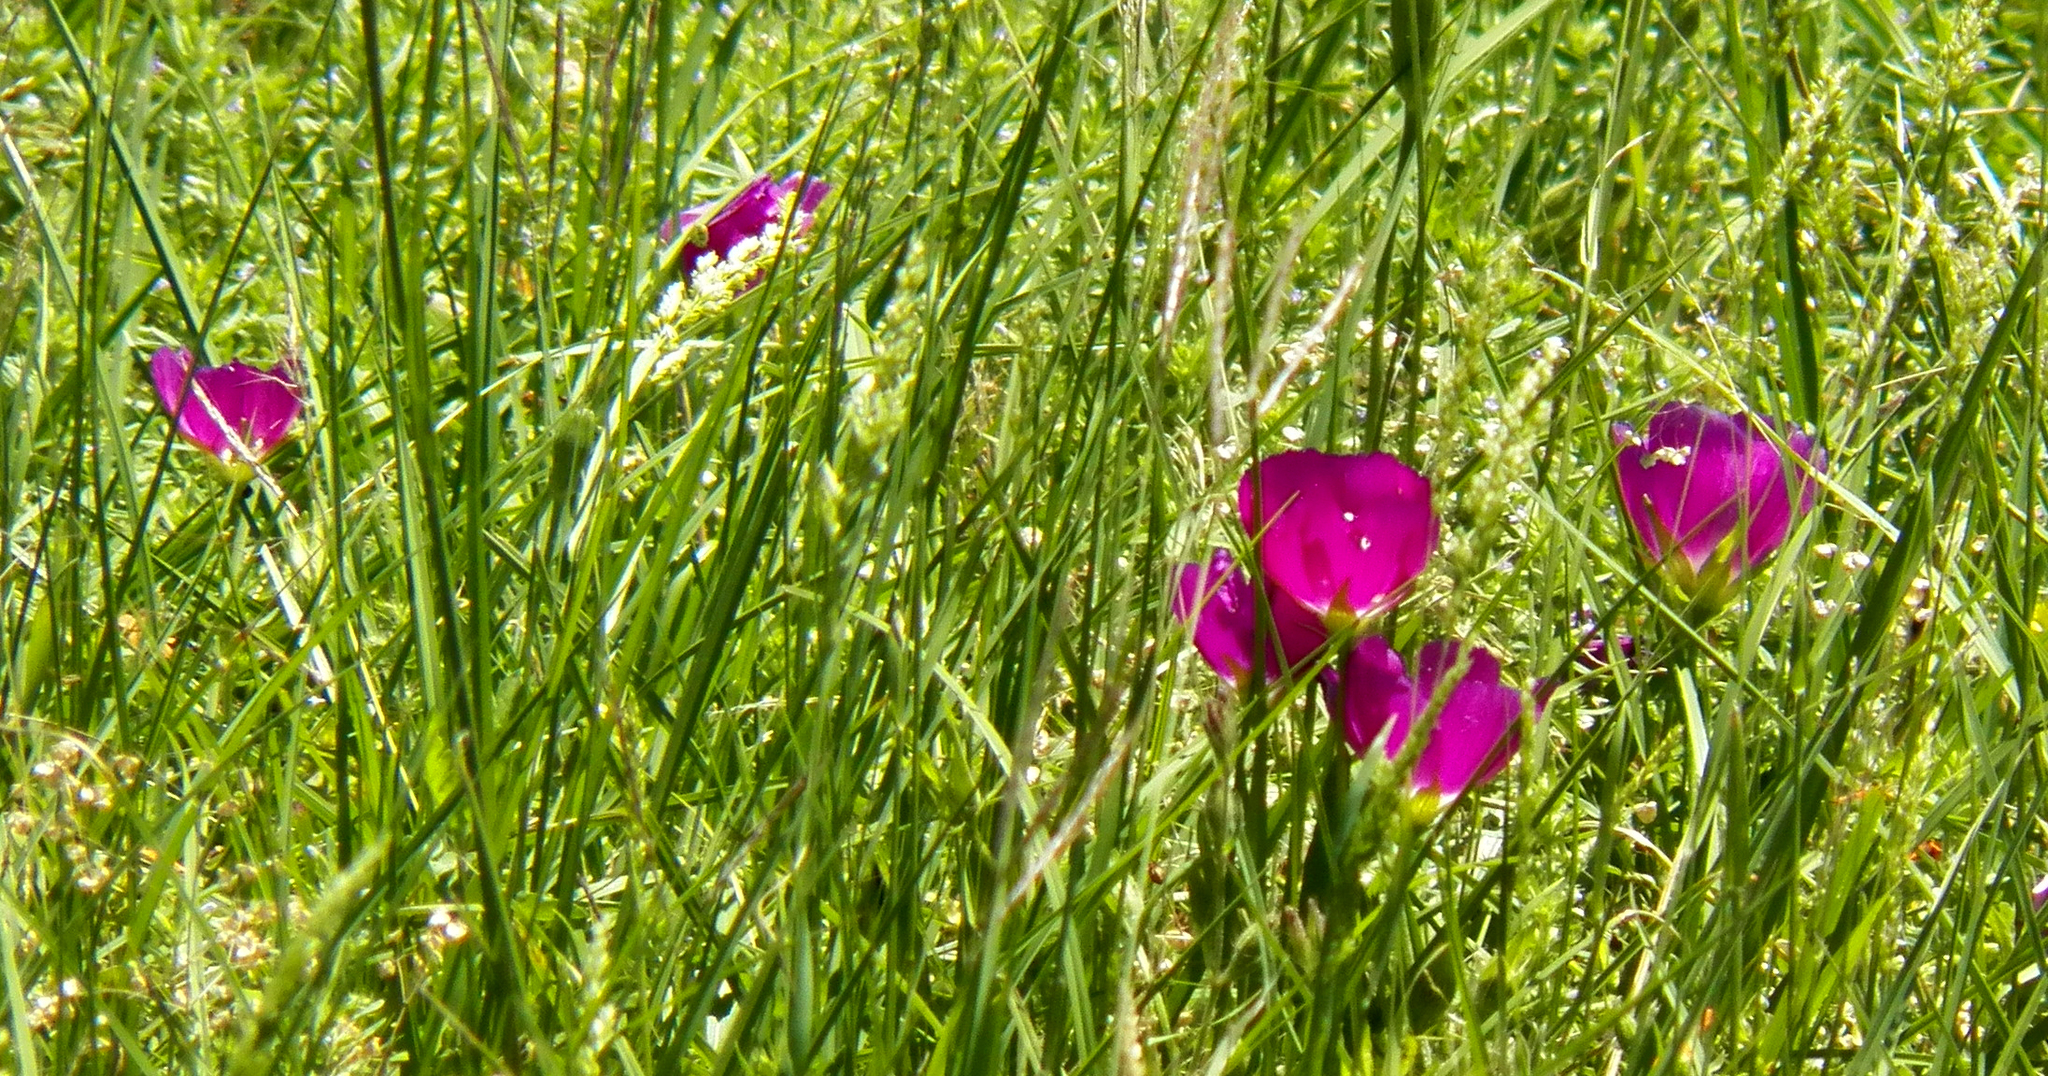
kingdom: Plantae
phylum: Tracheophyta
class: Magnoliopsida
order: Malvales
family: Malvaceae
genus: Callirhoe
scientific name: Callirhoe involucrata
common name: Purple poppy-mallow
